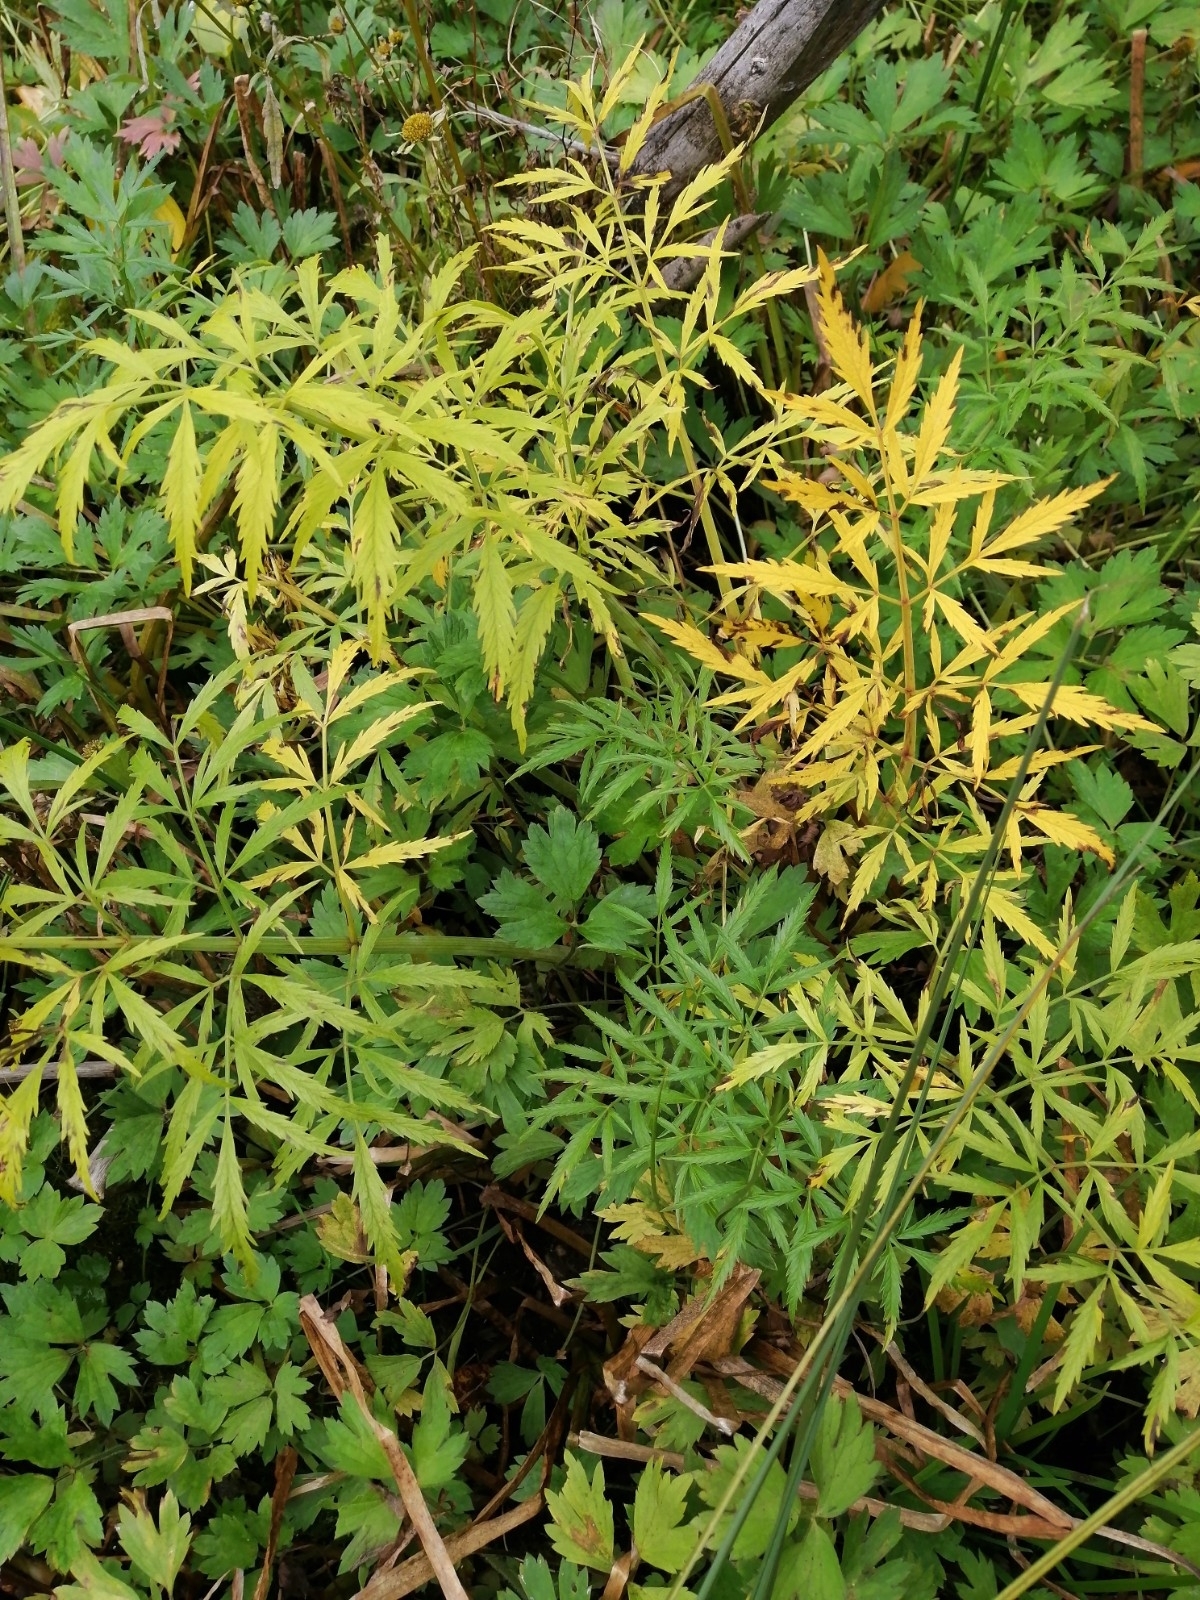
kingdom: Plantae
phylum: Tracheophyta
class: Magnoliopsida
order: Apiales
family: Apiaceae
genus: Cicuta
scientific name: Cicuta virosa
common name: Cowbane
